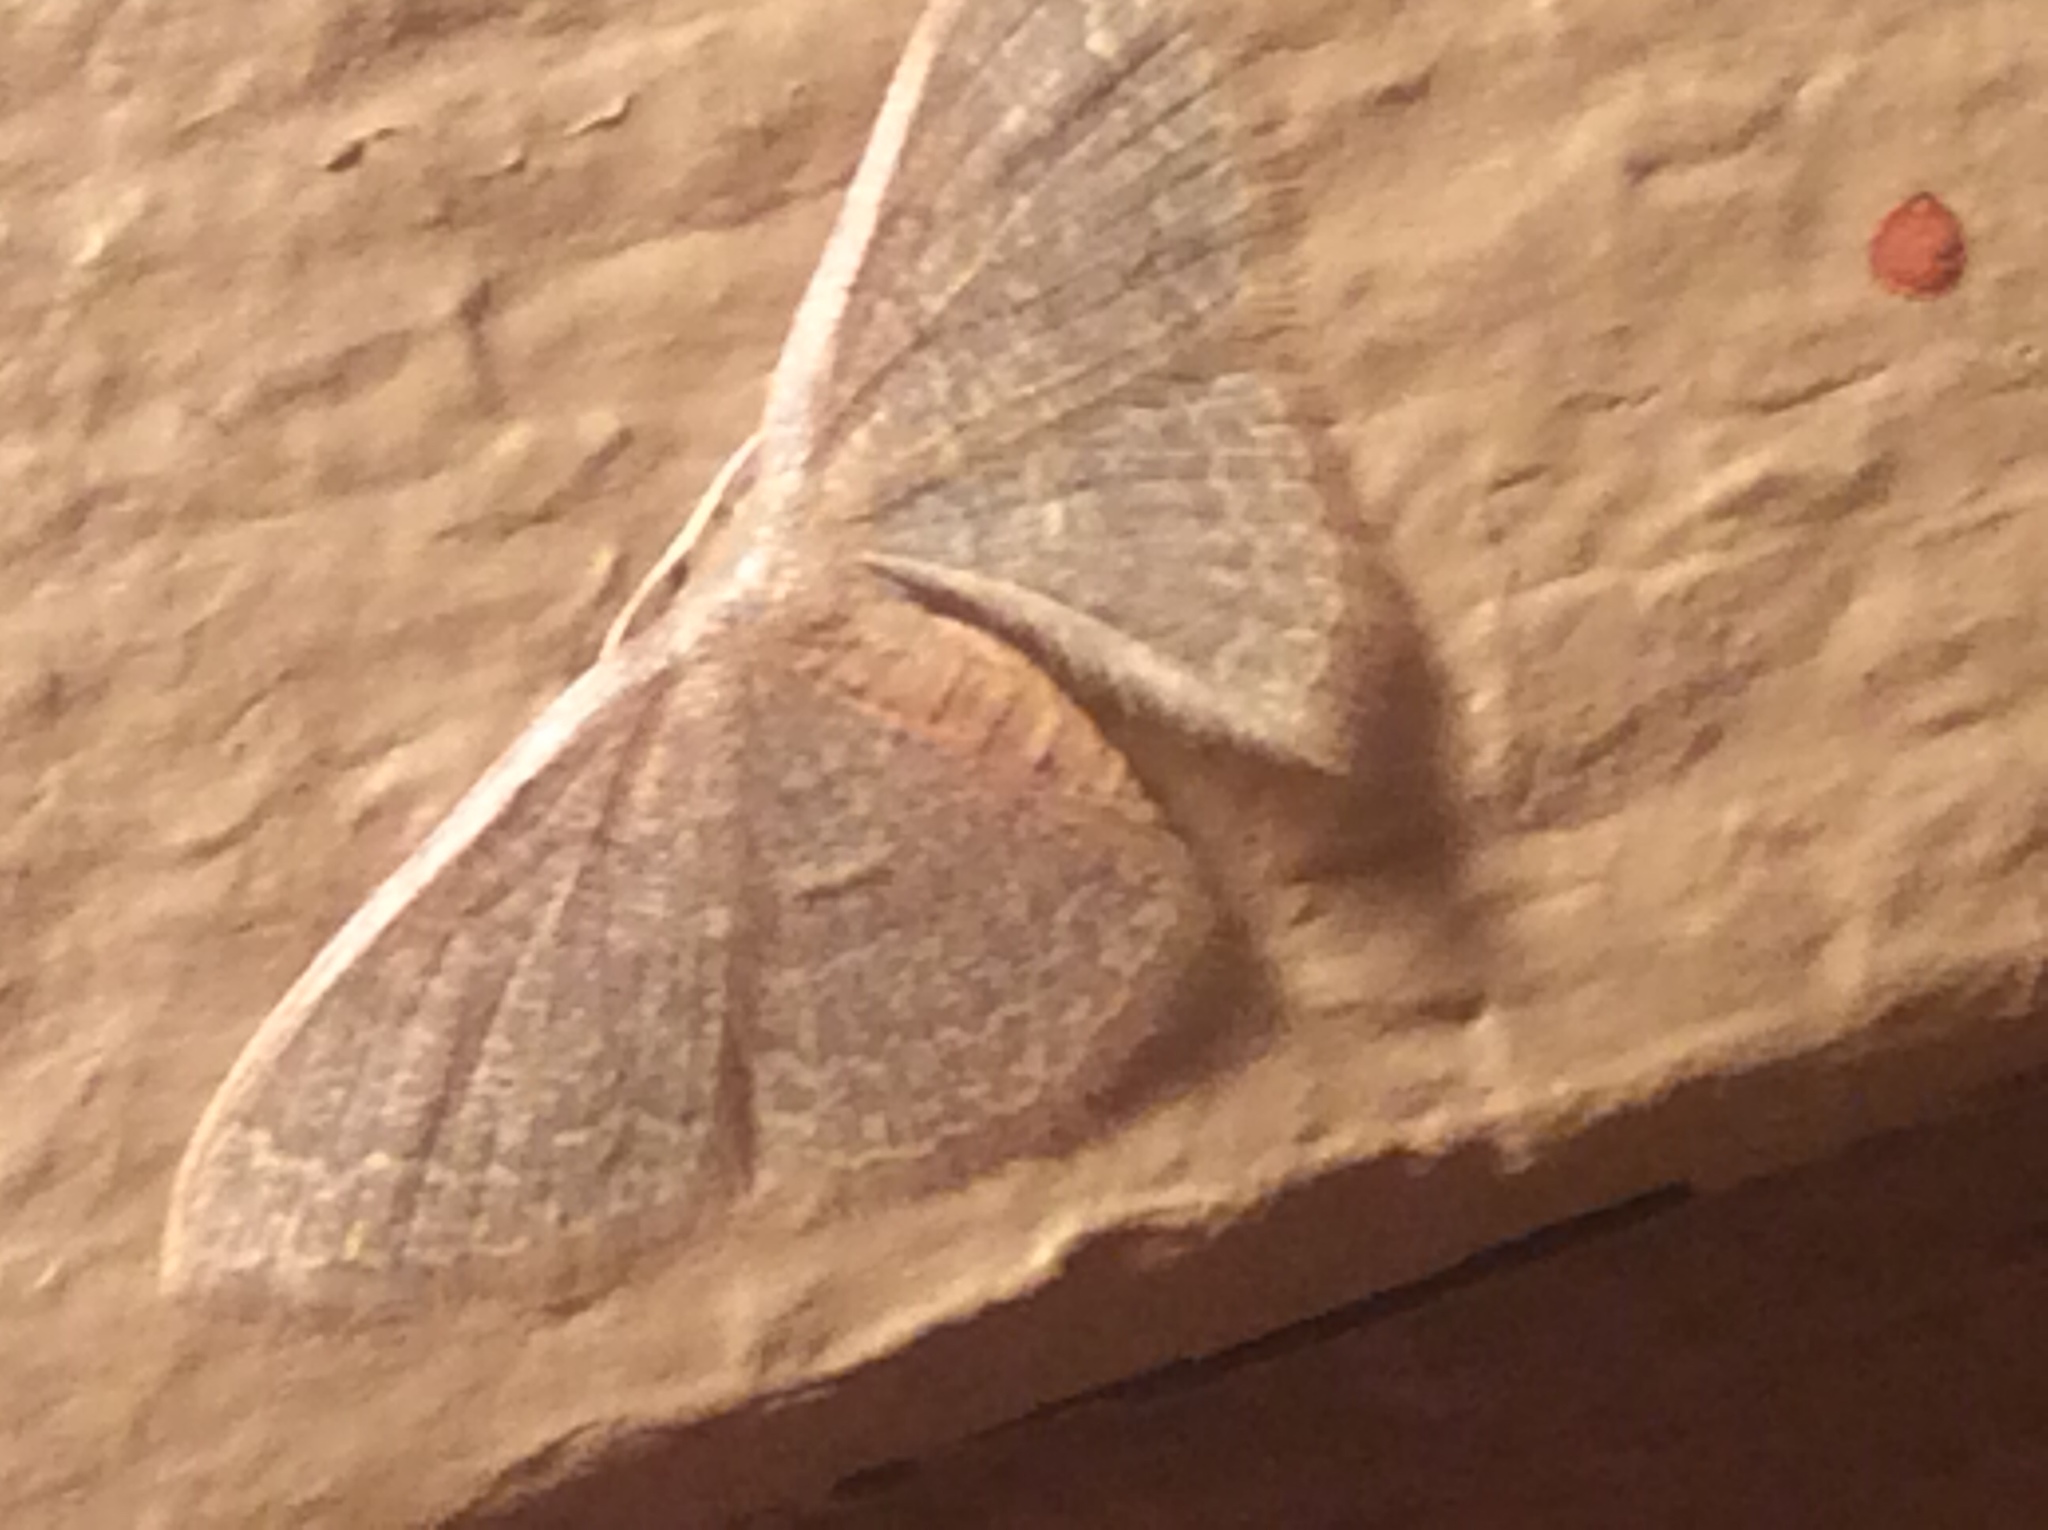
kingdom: Animalia
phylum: Arthropoda
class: Insecta
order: Lepidoptera
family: Geometridae
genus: Pleuroprucha
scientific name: Pleuroprucha insulsaria
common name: Common tan wave
